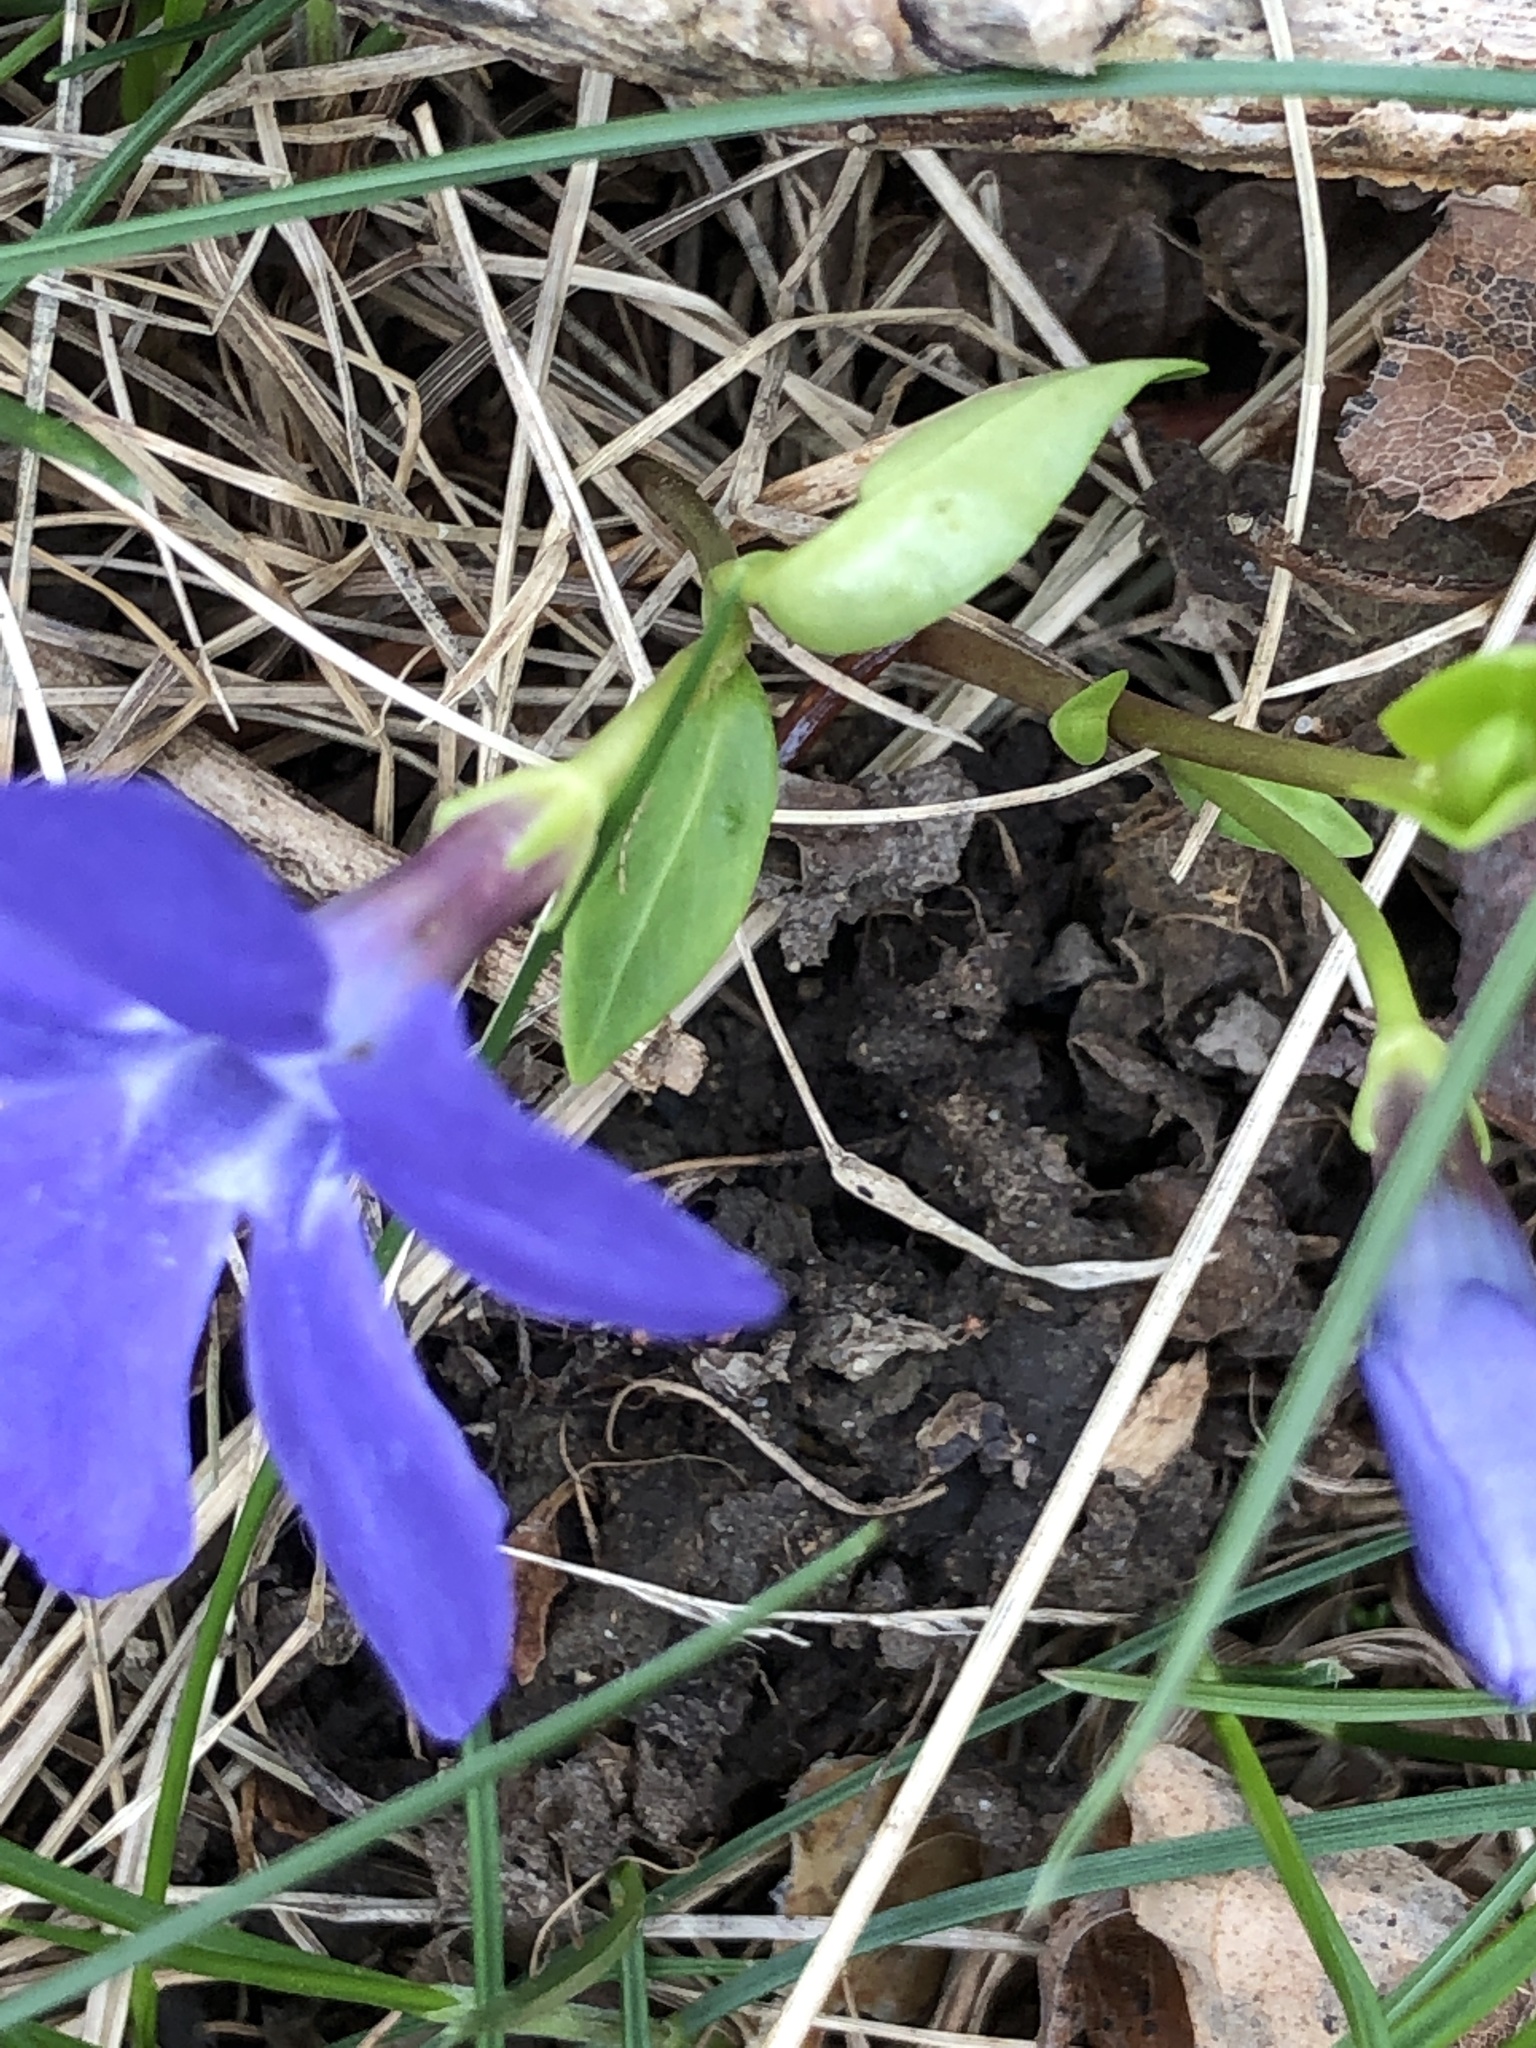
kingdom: Plantae
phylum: Tracheophyta
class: Magnoliopsida
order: Gentianales
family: Apocynaceae
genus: Vinca
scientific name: Vinca minor
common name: Lesser periwinkle
